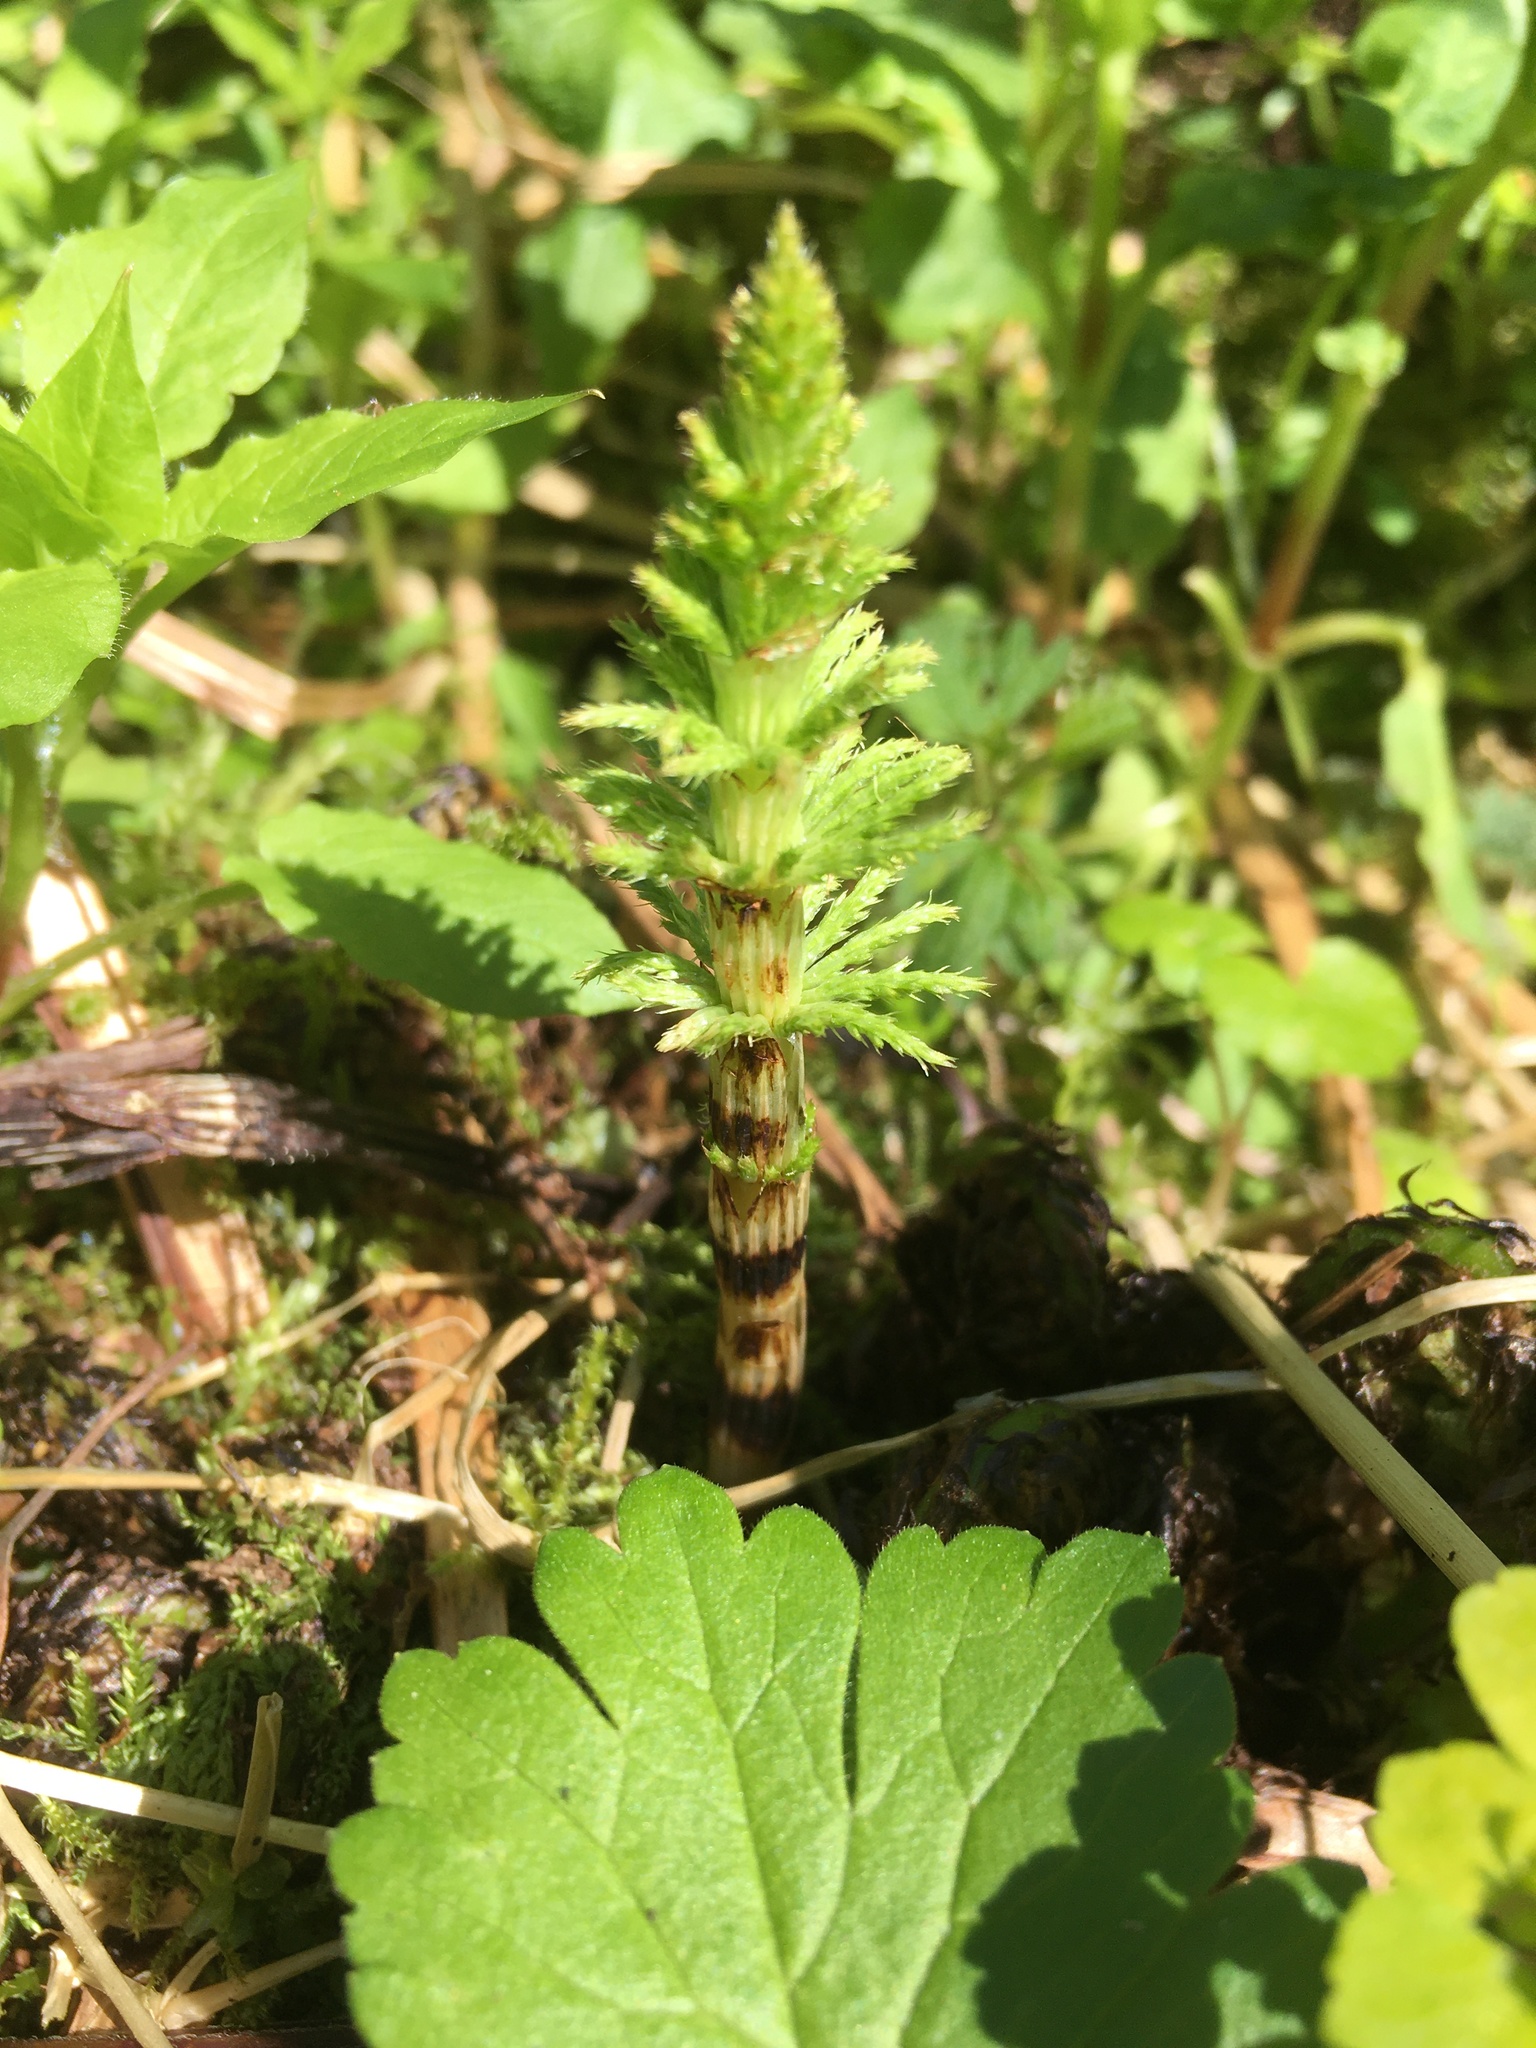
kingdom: Plantae
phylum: Tracheophyta
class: Polypodiopsida
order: Equisetales
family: Equisetaceae
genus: Equisetum
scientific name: Equisetum sylvaticum
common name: Wood horsetail
